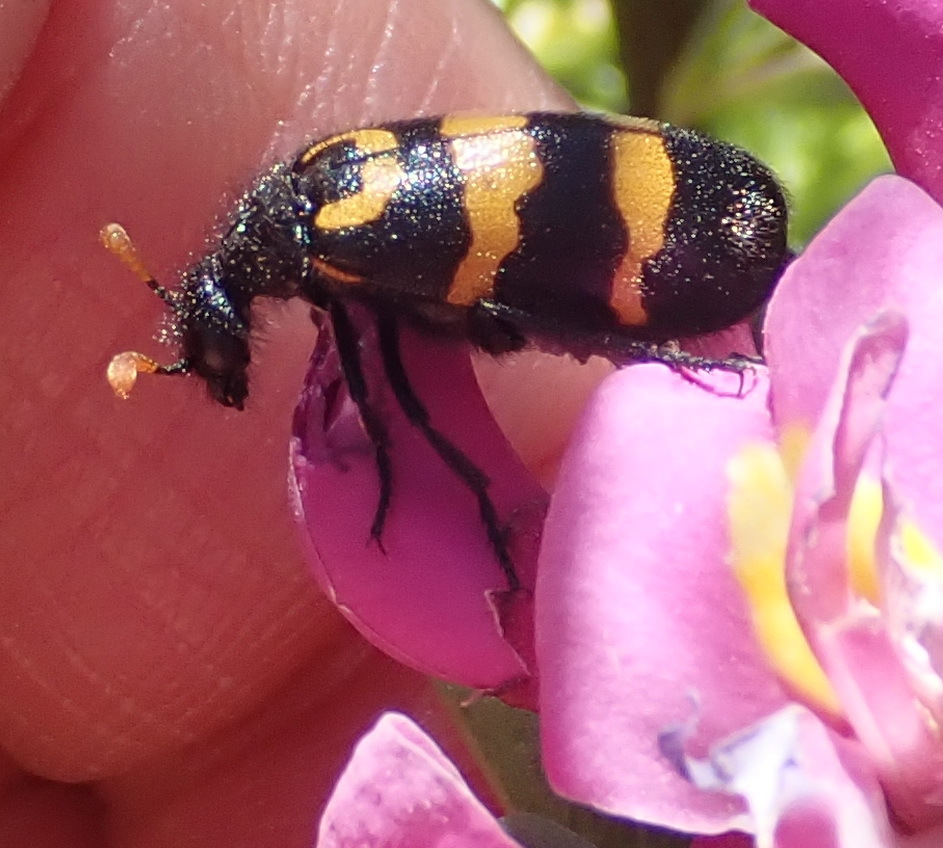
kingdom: Animalia
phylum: Arthropoda
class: Insecta
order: Coleoptera
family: Meloidae
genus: Meloe
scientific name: Meloe lunata
